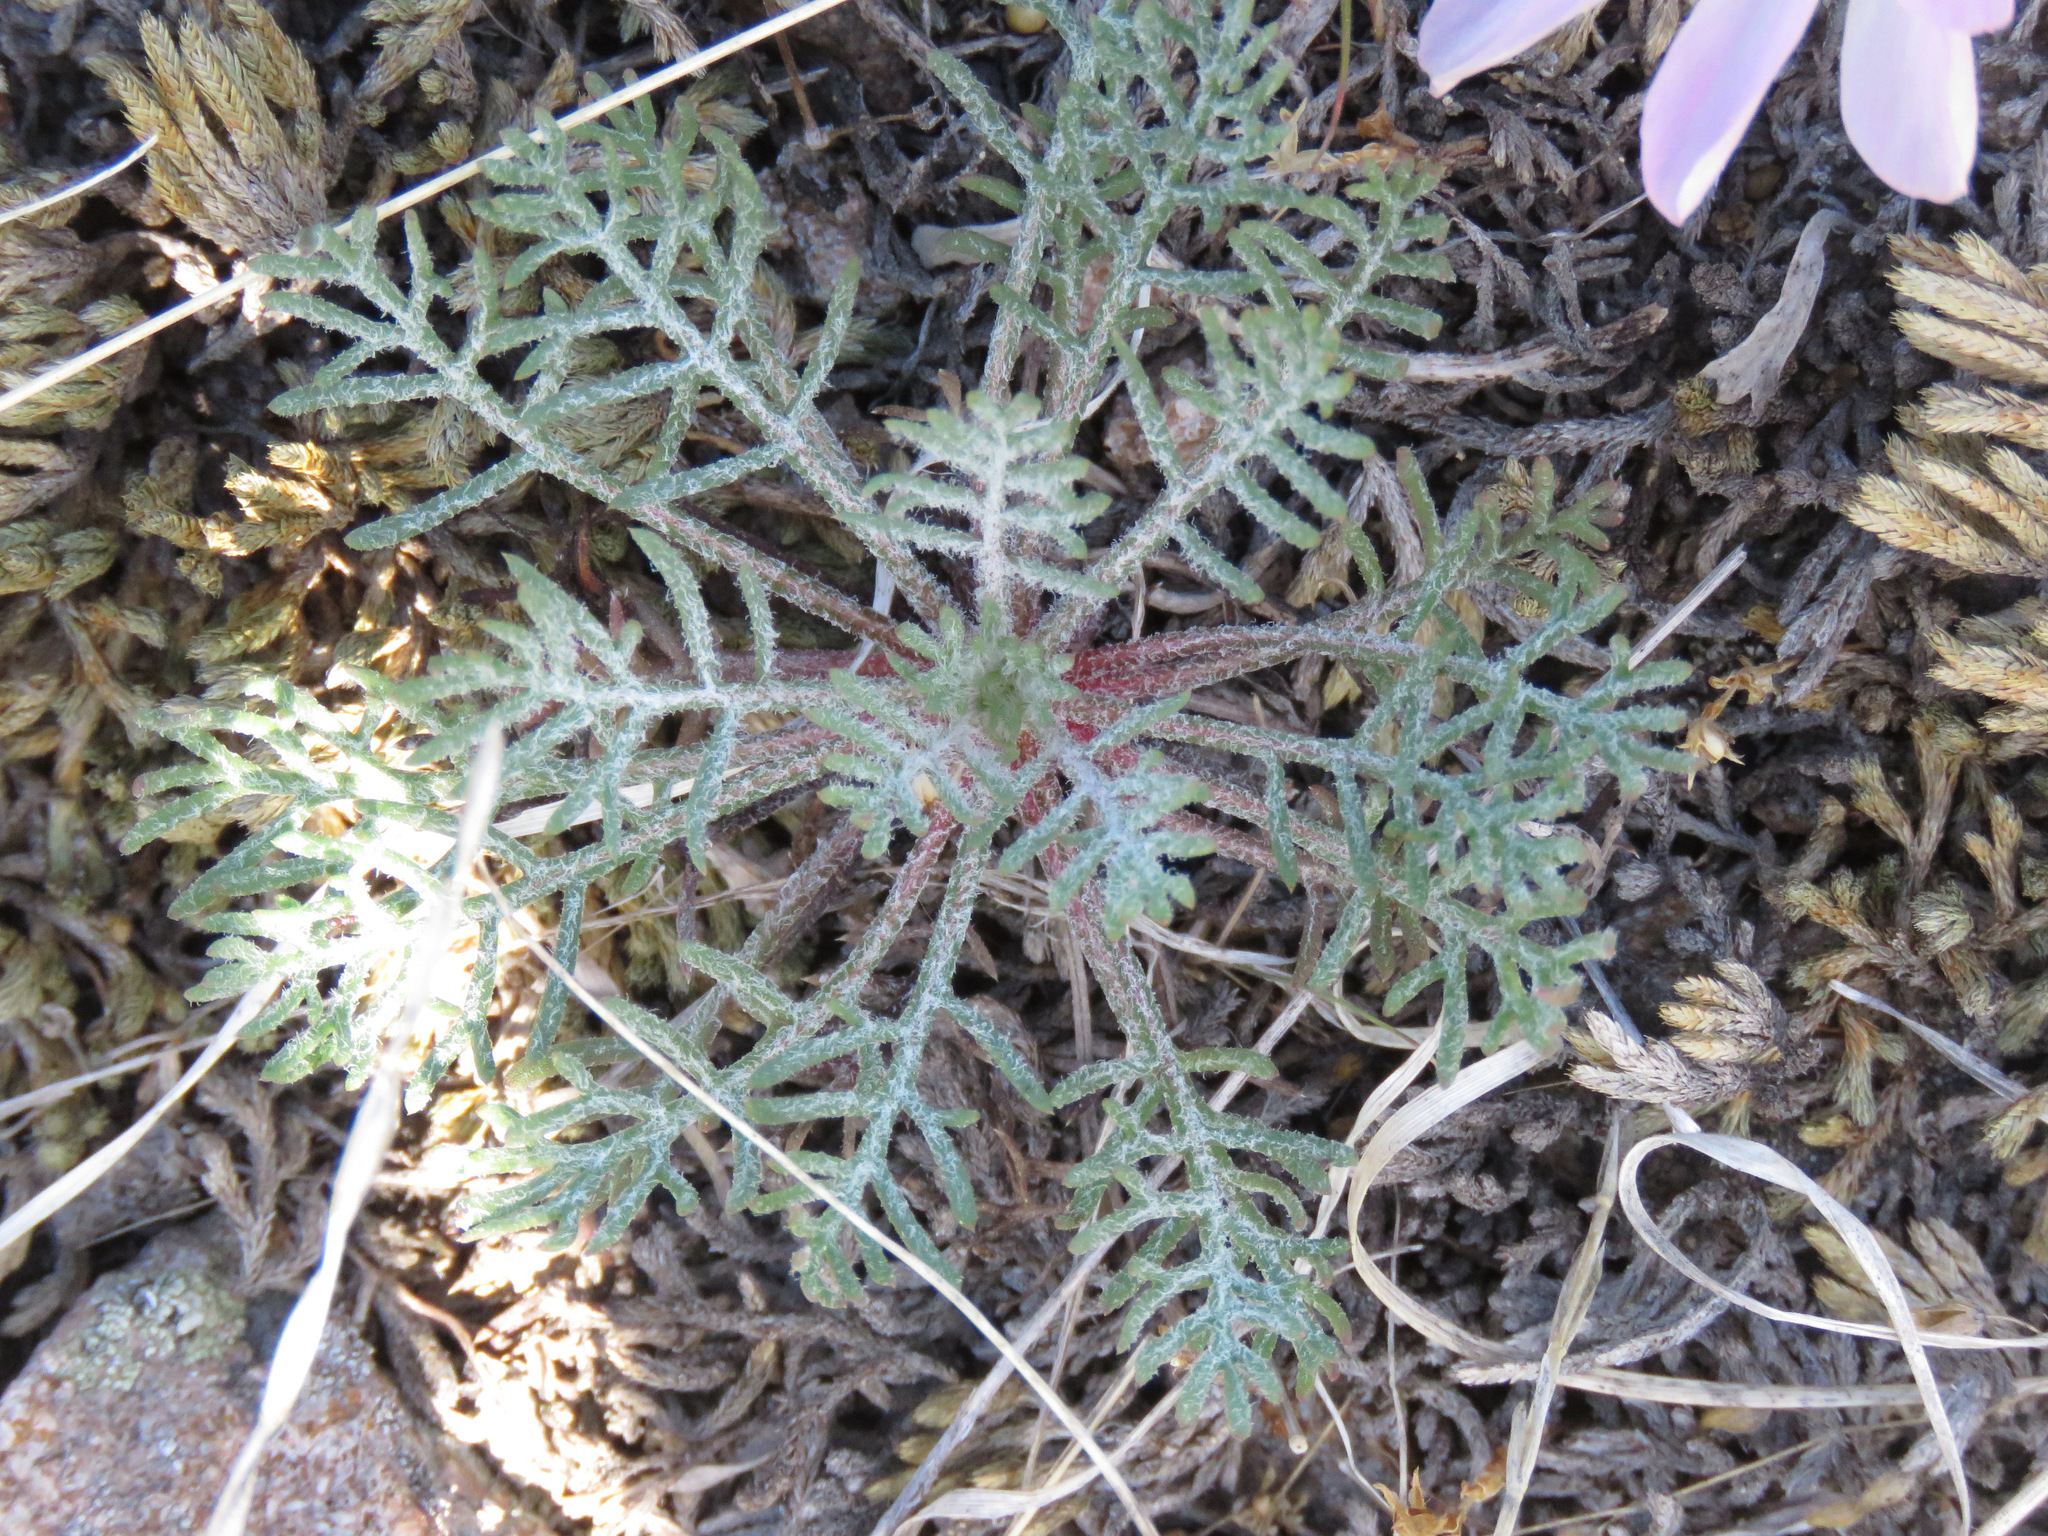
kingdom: Plantae
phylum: Tracheophyta
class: Magnoliopsida
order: Ericales
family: Polemoniaceae
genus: Ipomopsis
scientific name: Ipomopsis aggregata
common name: Scarlet gilia
